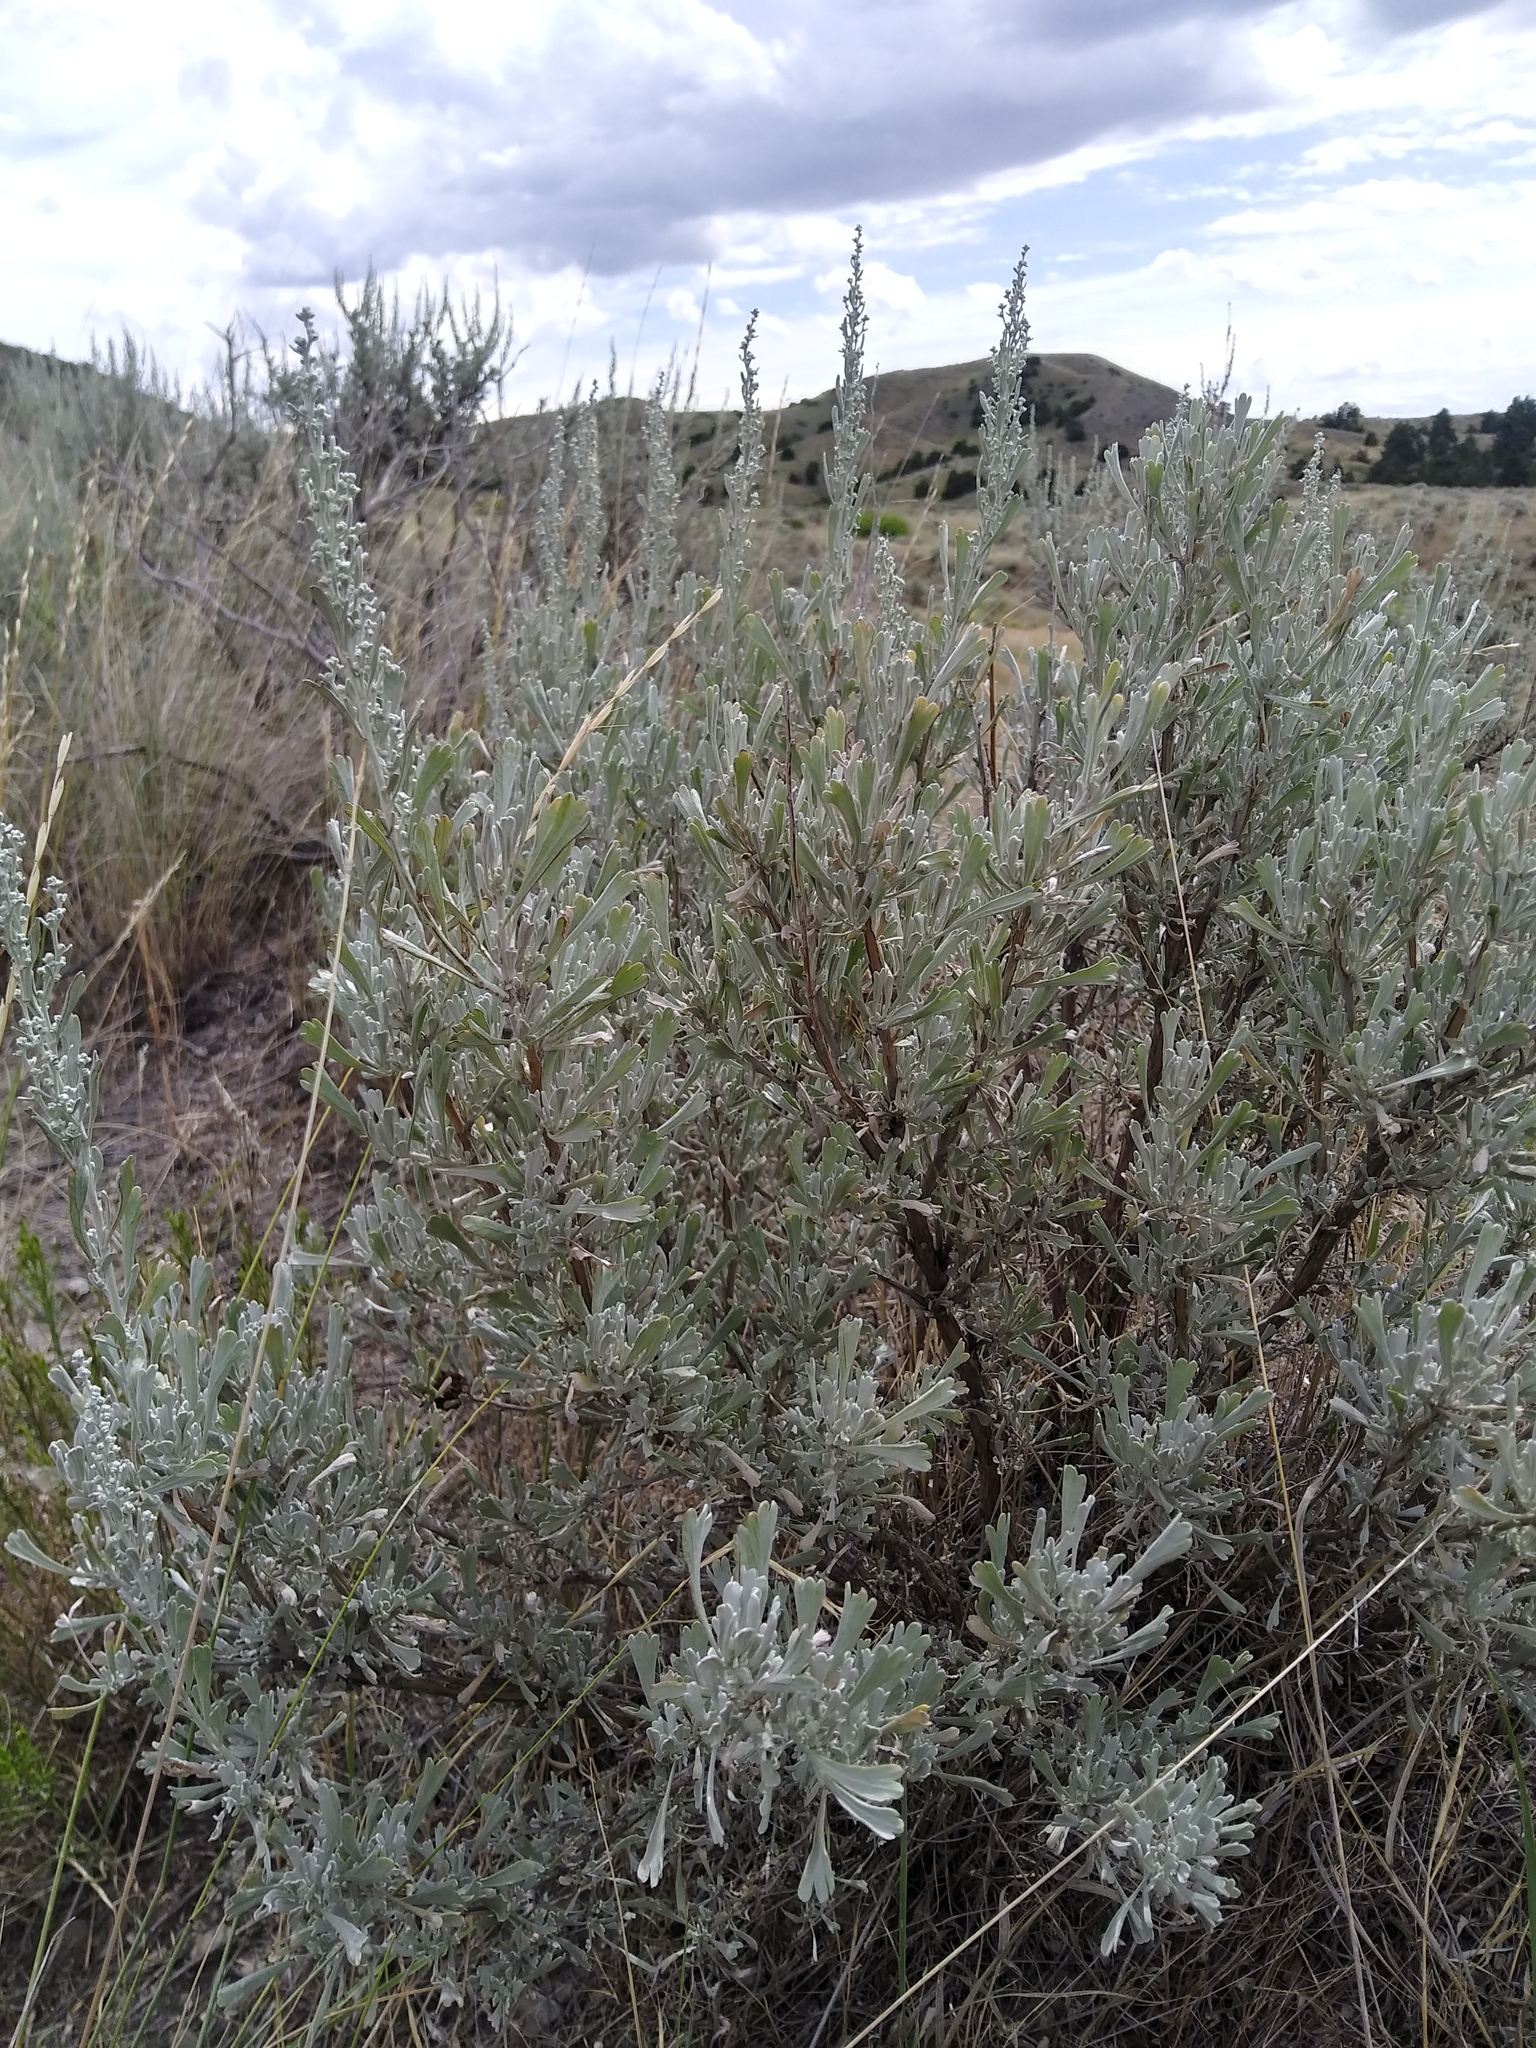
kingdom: Plantae
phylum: Tracheophyta
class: Magnoliopsida
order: Asterales
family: Asteraceae
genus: Artemisia
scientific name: Artemisia tridentata
